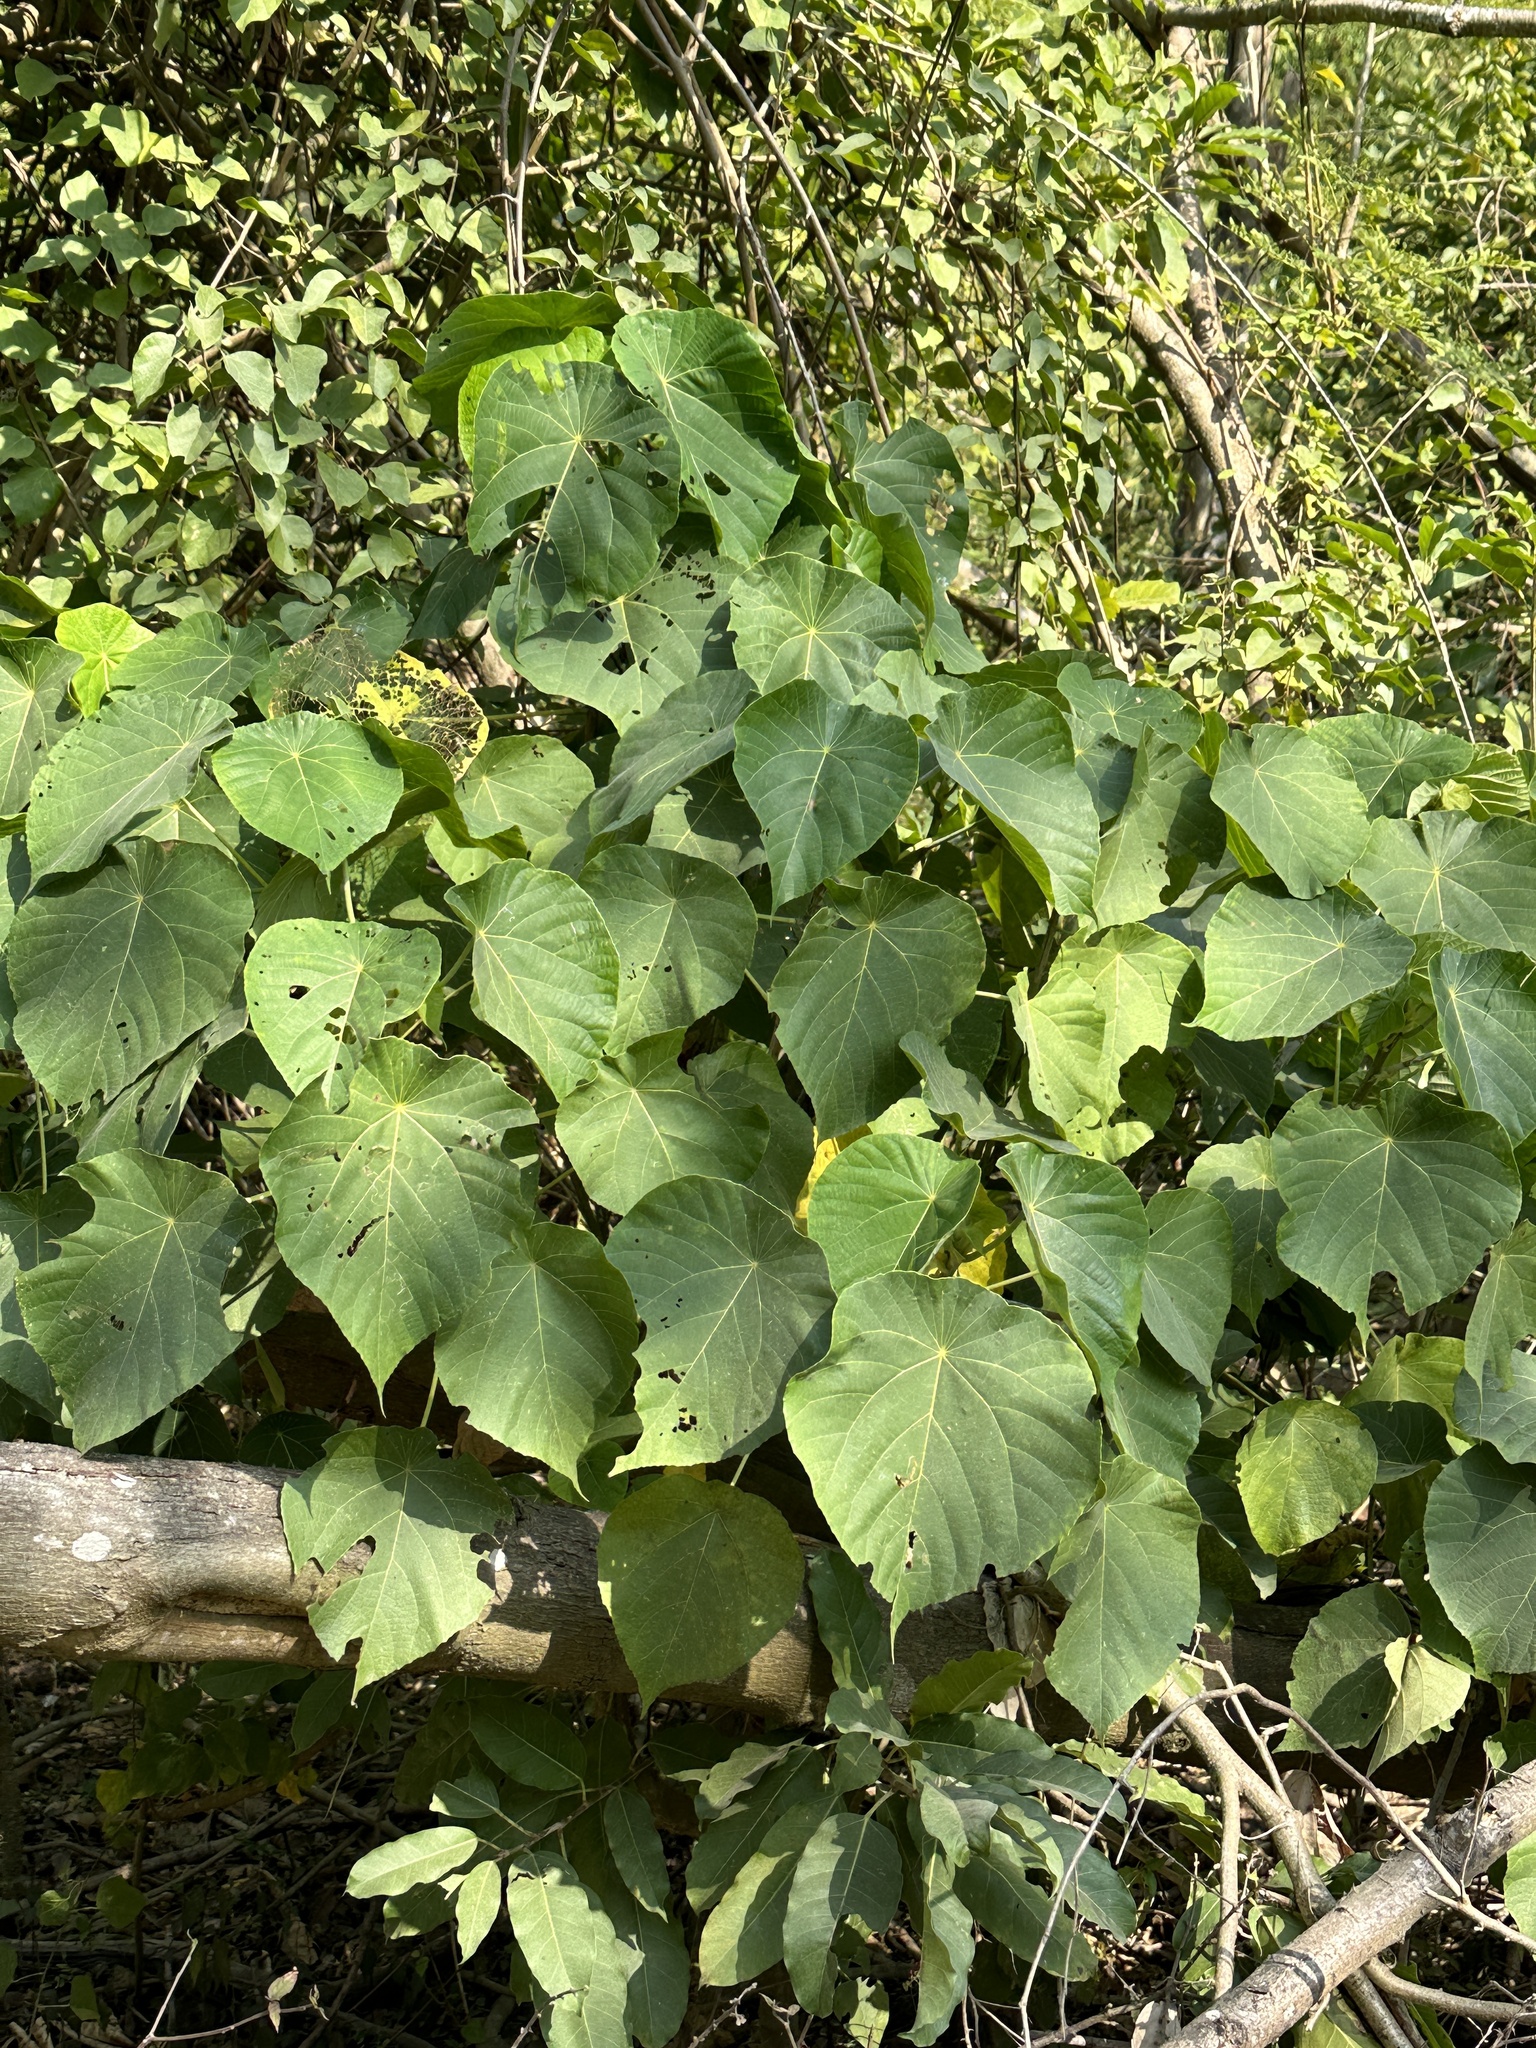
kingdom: Plantae
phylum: Tracheophyta
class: Magnoliopsida
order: Malpighiales
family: Euphorbiaceae
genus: Macaranga
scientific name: Macaranga tanarius
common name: Parasol leaf tree
